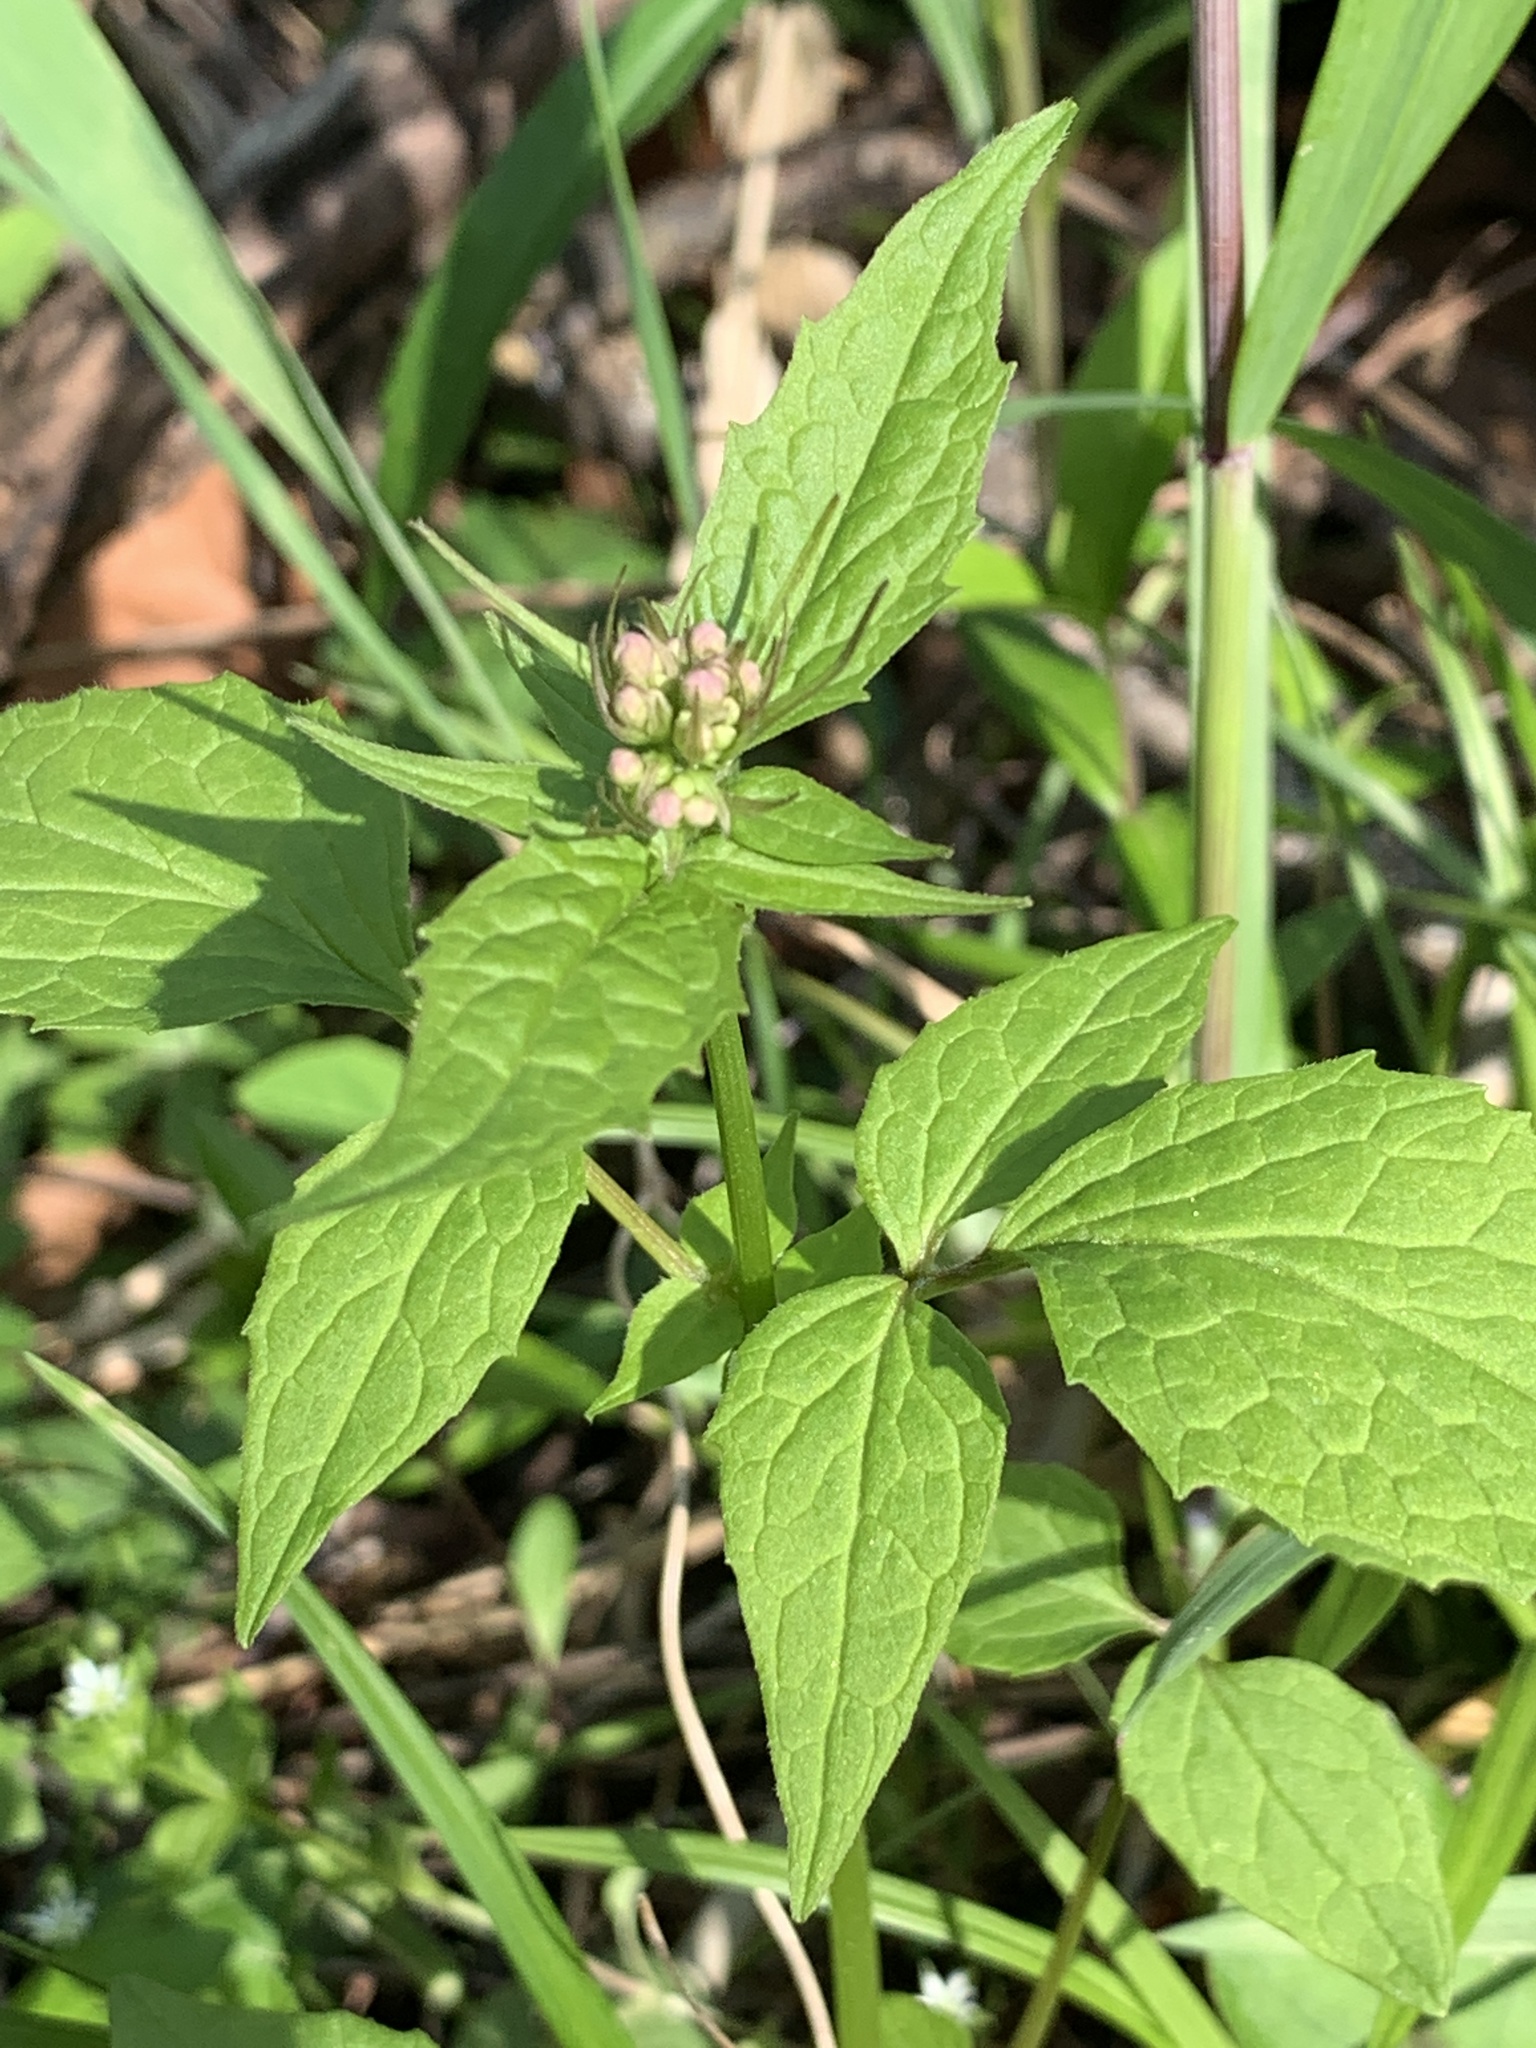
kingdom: Plantae
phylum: Tracheophyta
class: Magnoliopsida
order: Dipsacales
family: Caprifoliaceae
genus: Valeriana
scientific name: Valeriana pauciflora
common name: Long-tube valeriana
